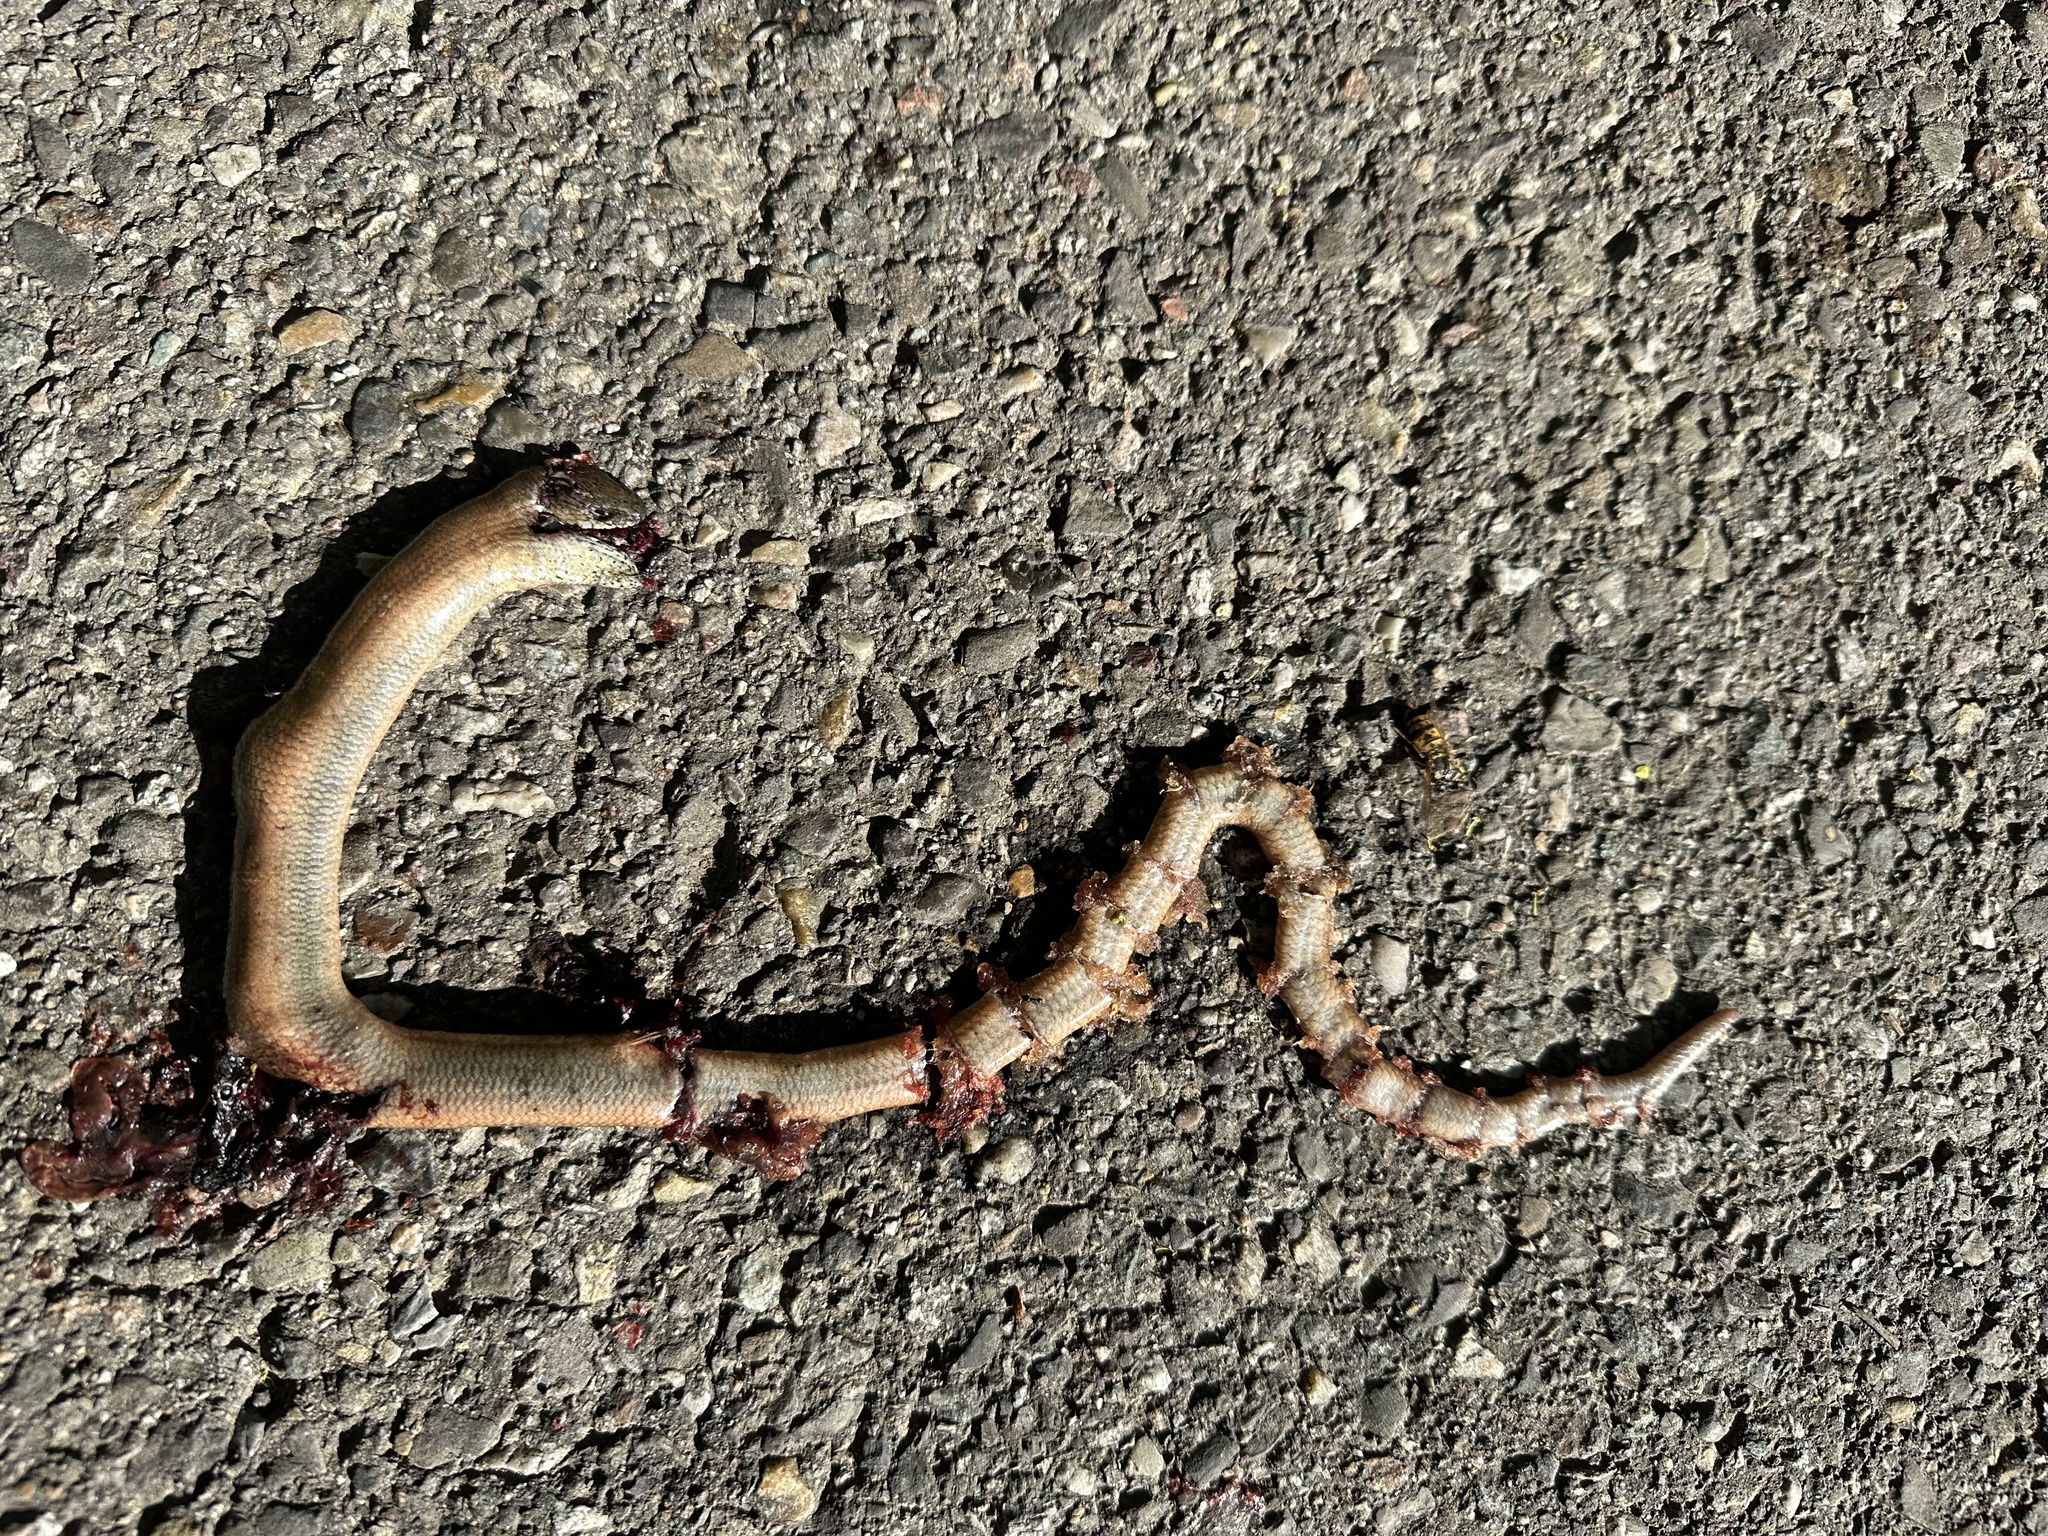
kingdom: Animalia
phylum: Chordata
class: Squamata
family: Anguidae
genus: Anguis
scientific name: Anguis fragilis
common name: Slow worm
